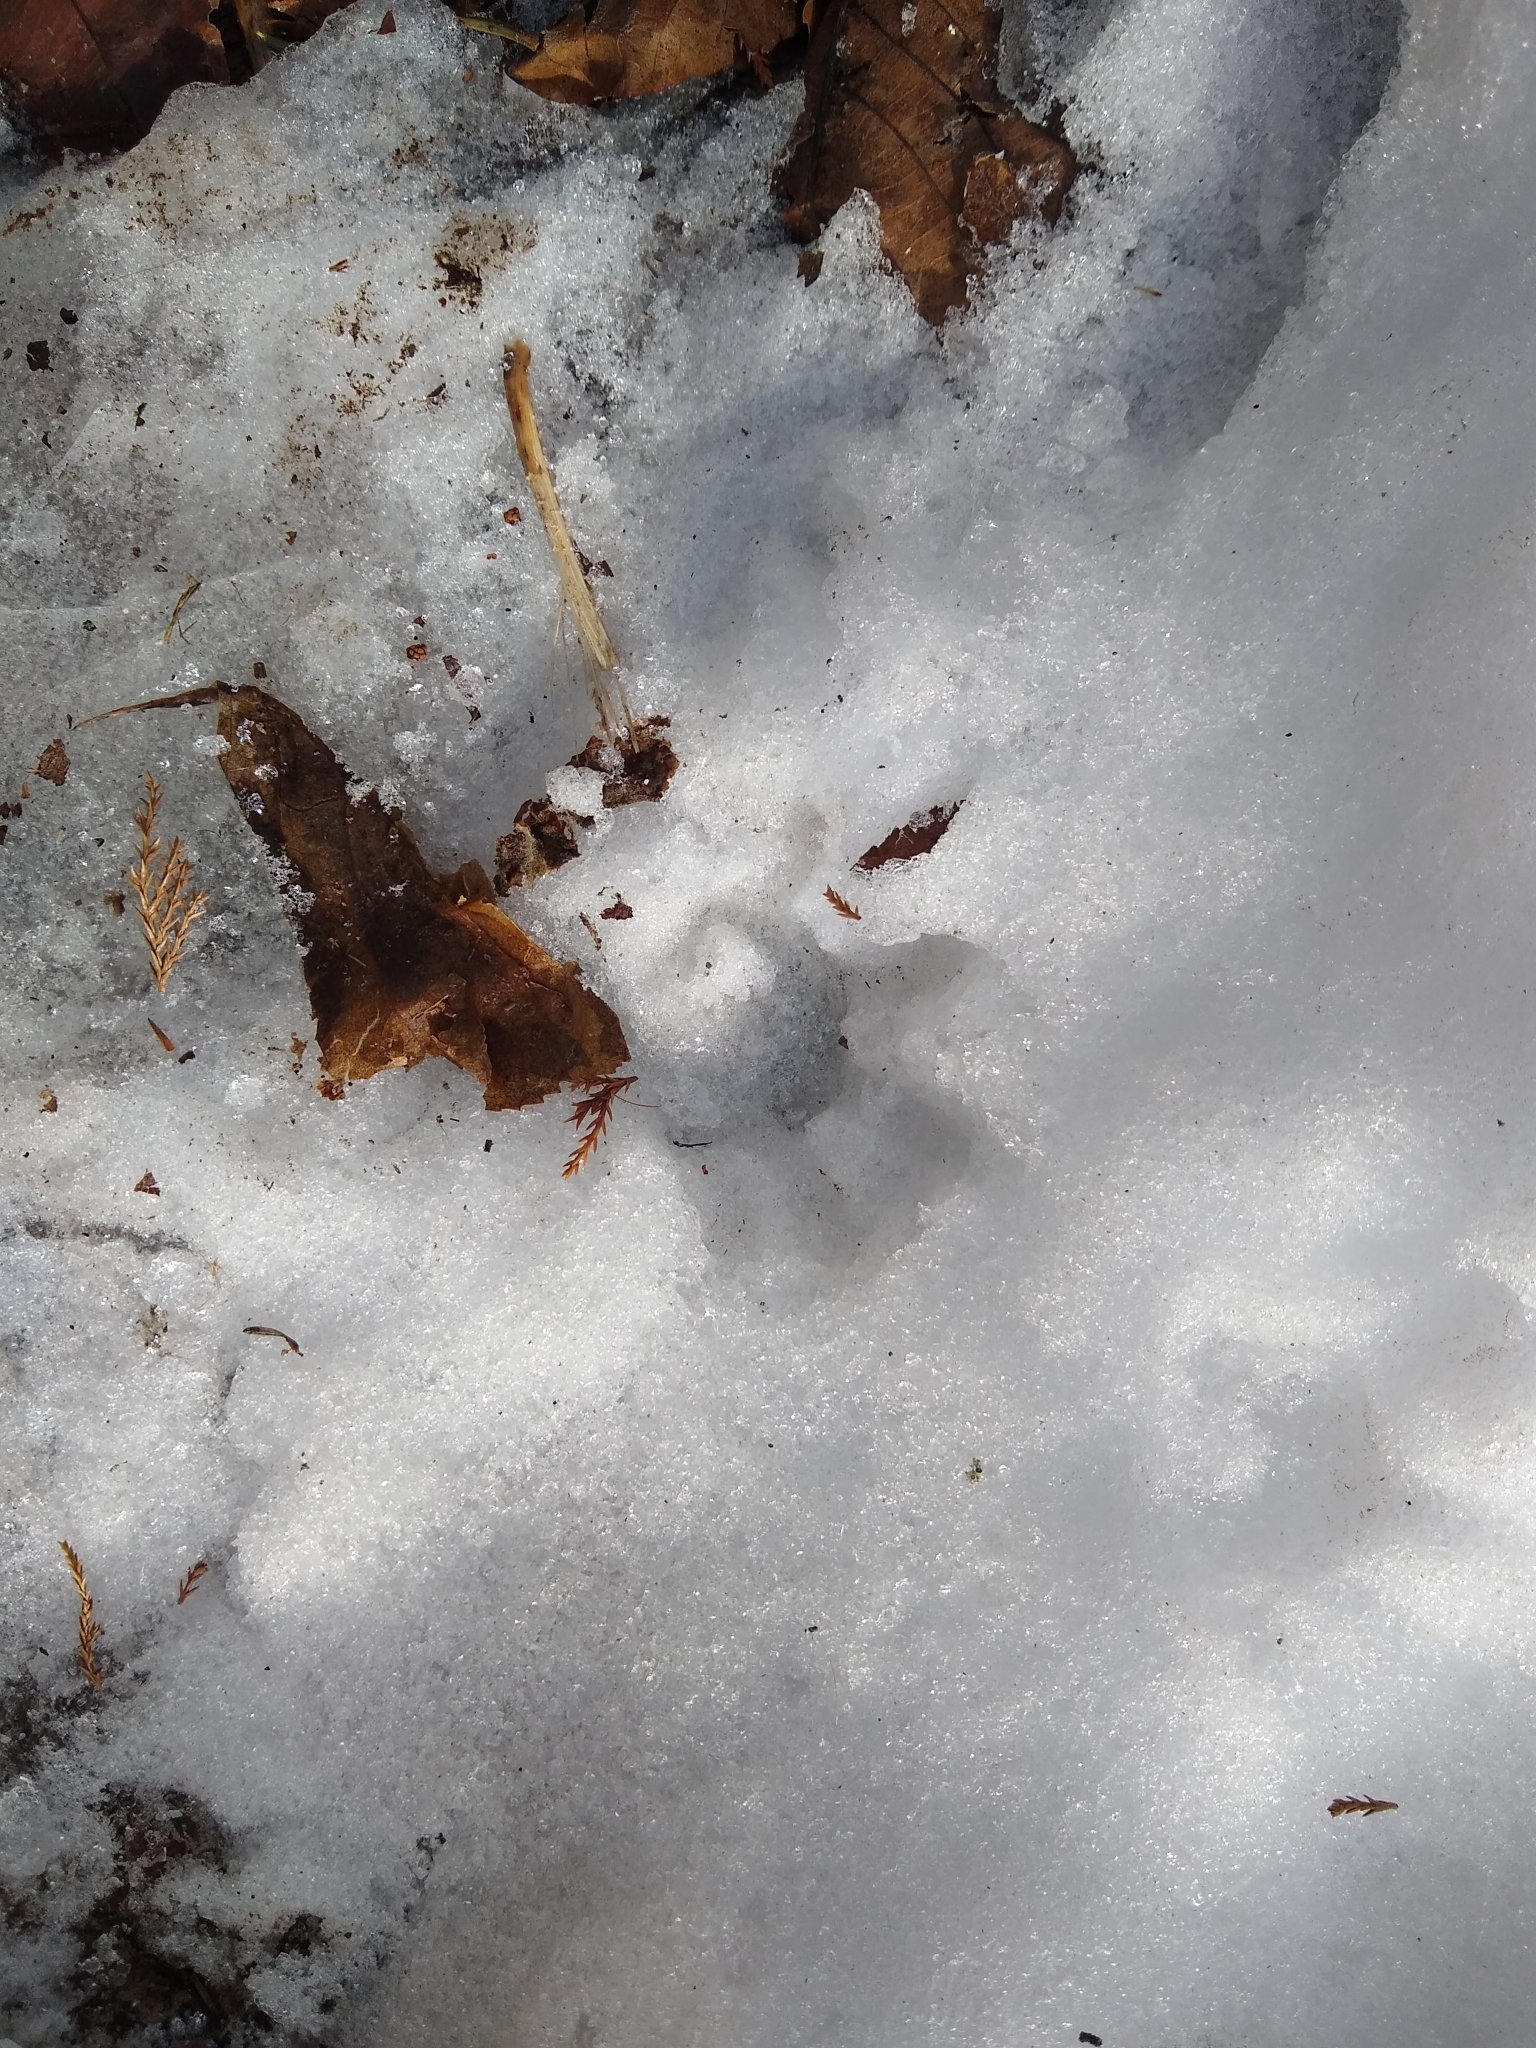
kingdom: Animalia
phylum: Chordata
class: Mammalia
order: Didelphimorphia
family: Didelphidae
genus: Didelphis
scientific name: Didelphis virginiana
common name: Virginia opossum
